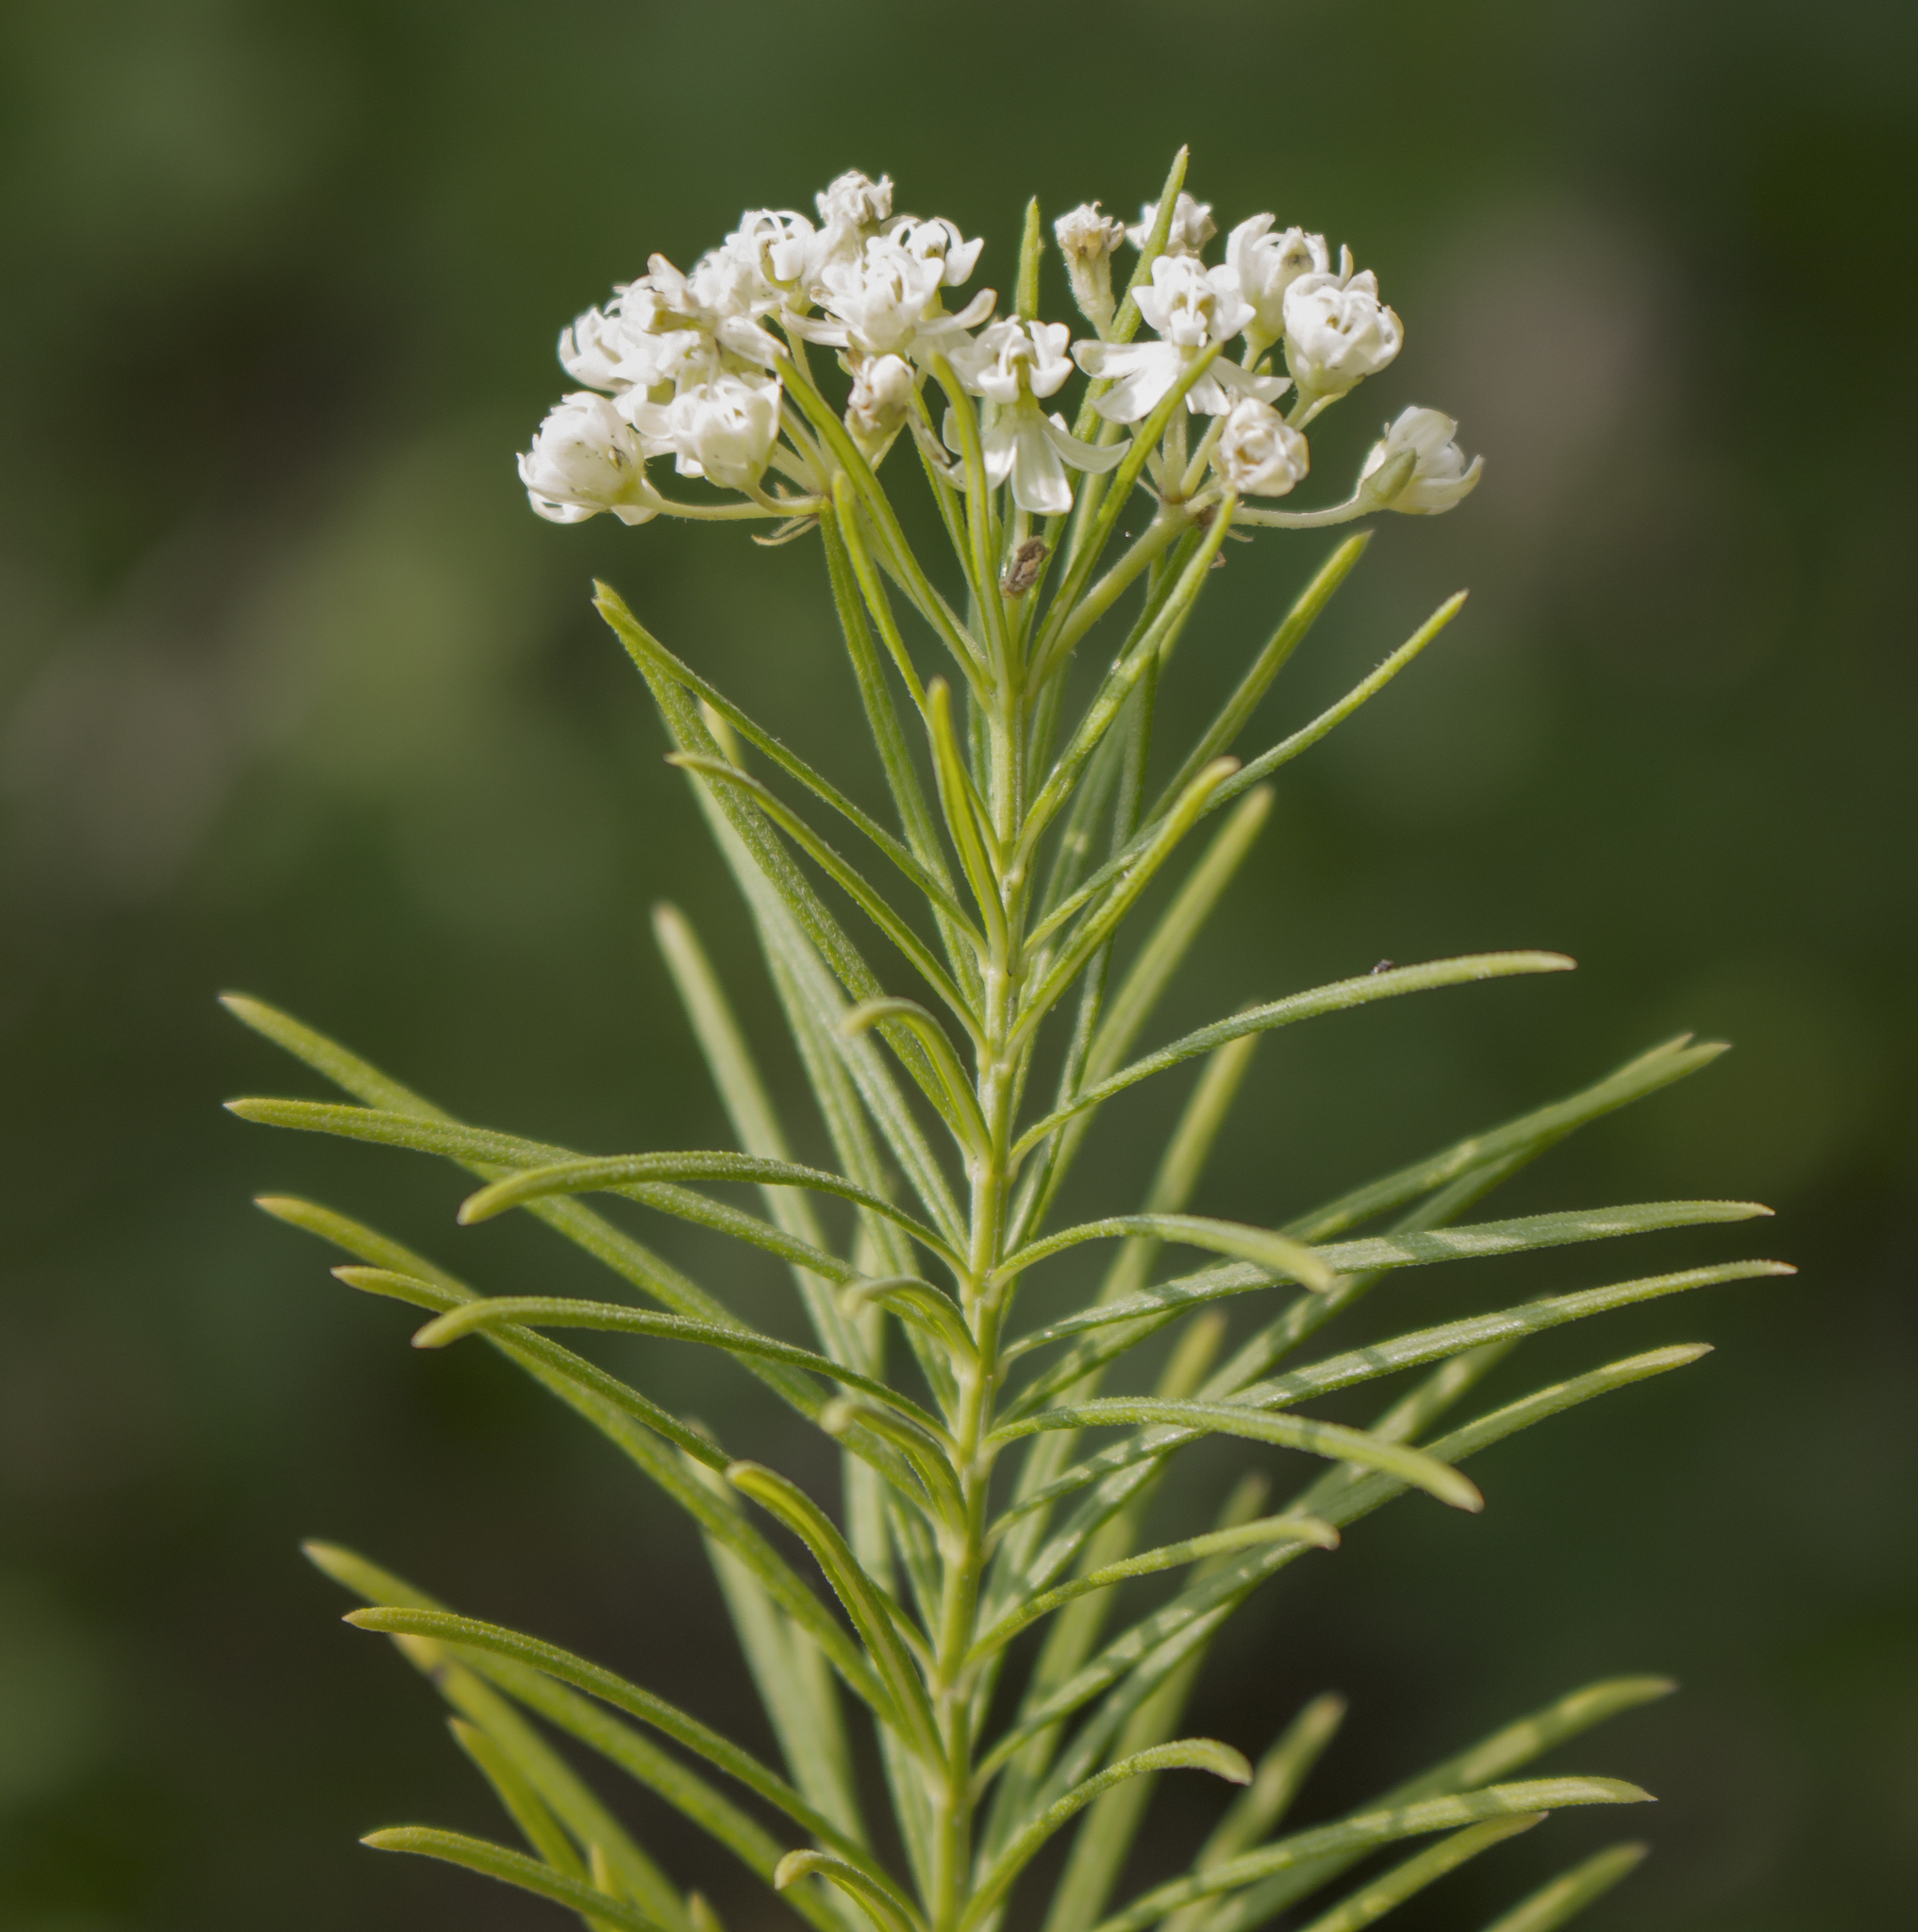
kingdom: Plantae
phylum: Tracheophyta
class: Magnoliopsida
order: Gentianales
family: Apocynaceae
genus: Asclepias
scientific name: Asclepias verticillata
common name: Eastern whorled milkweed
